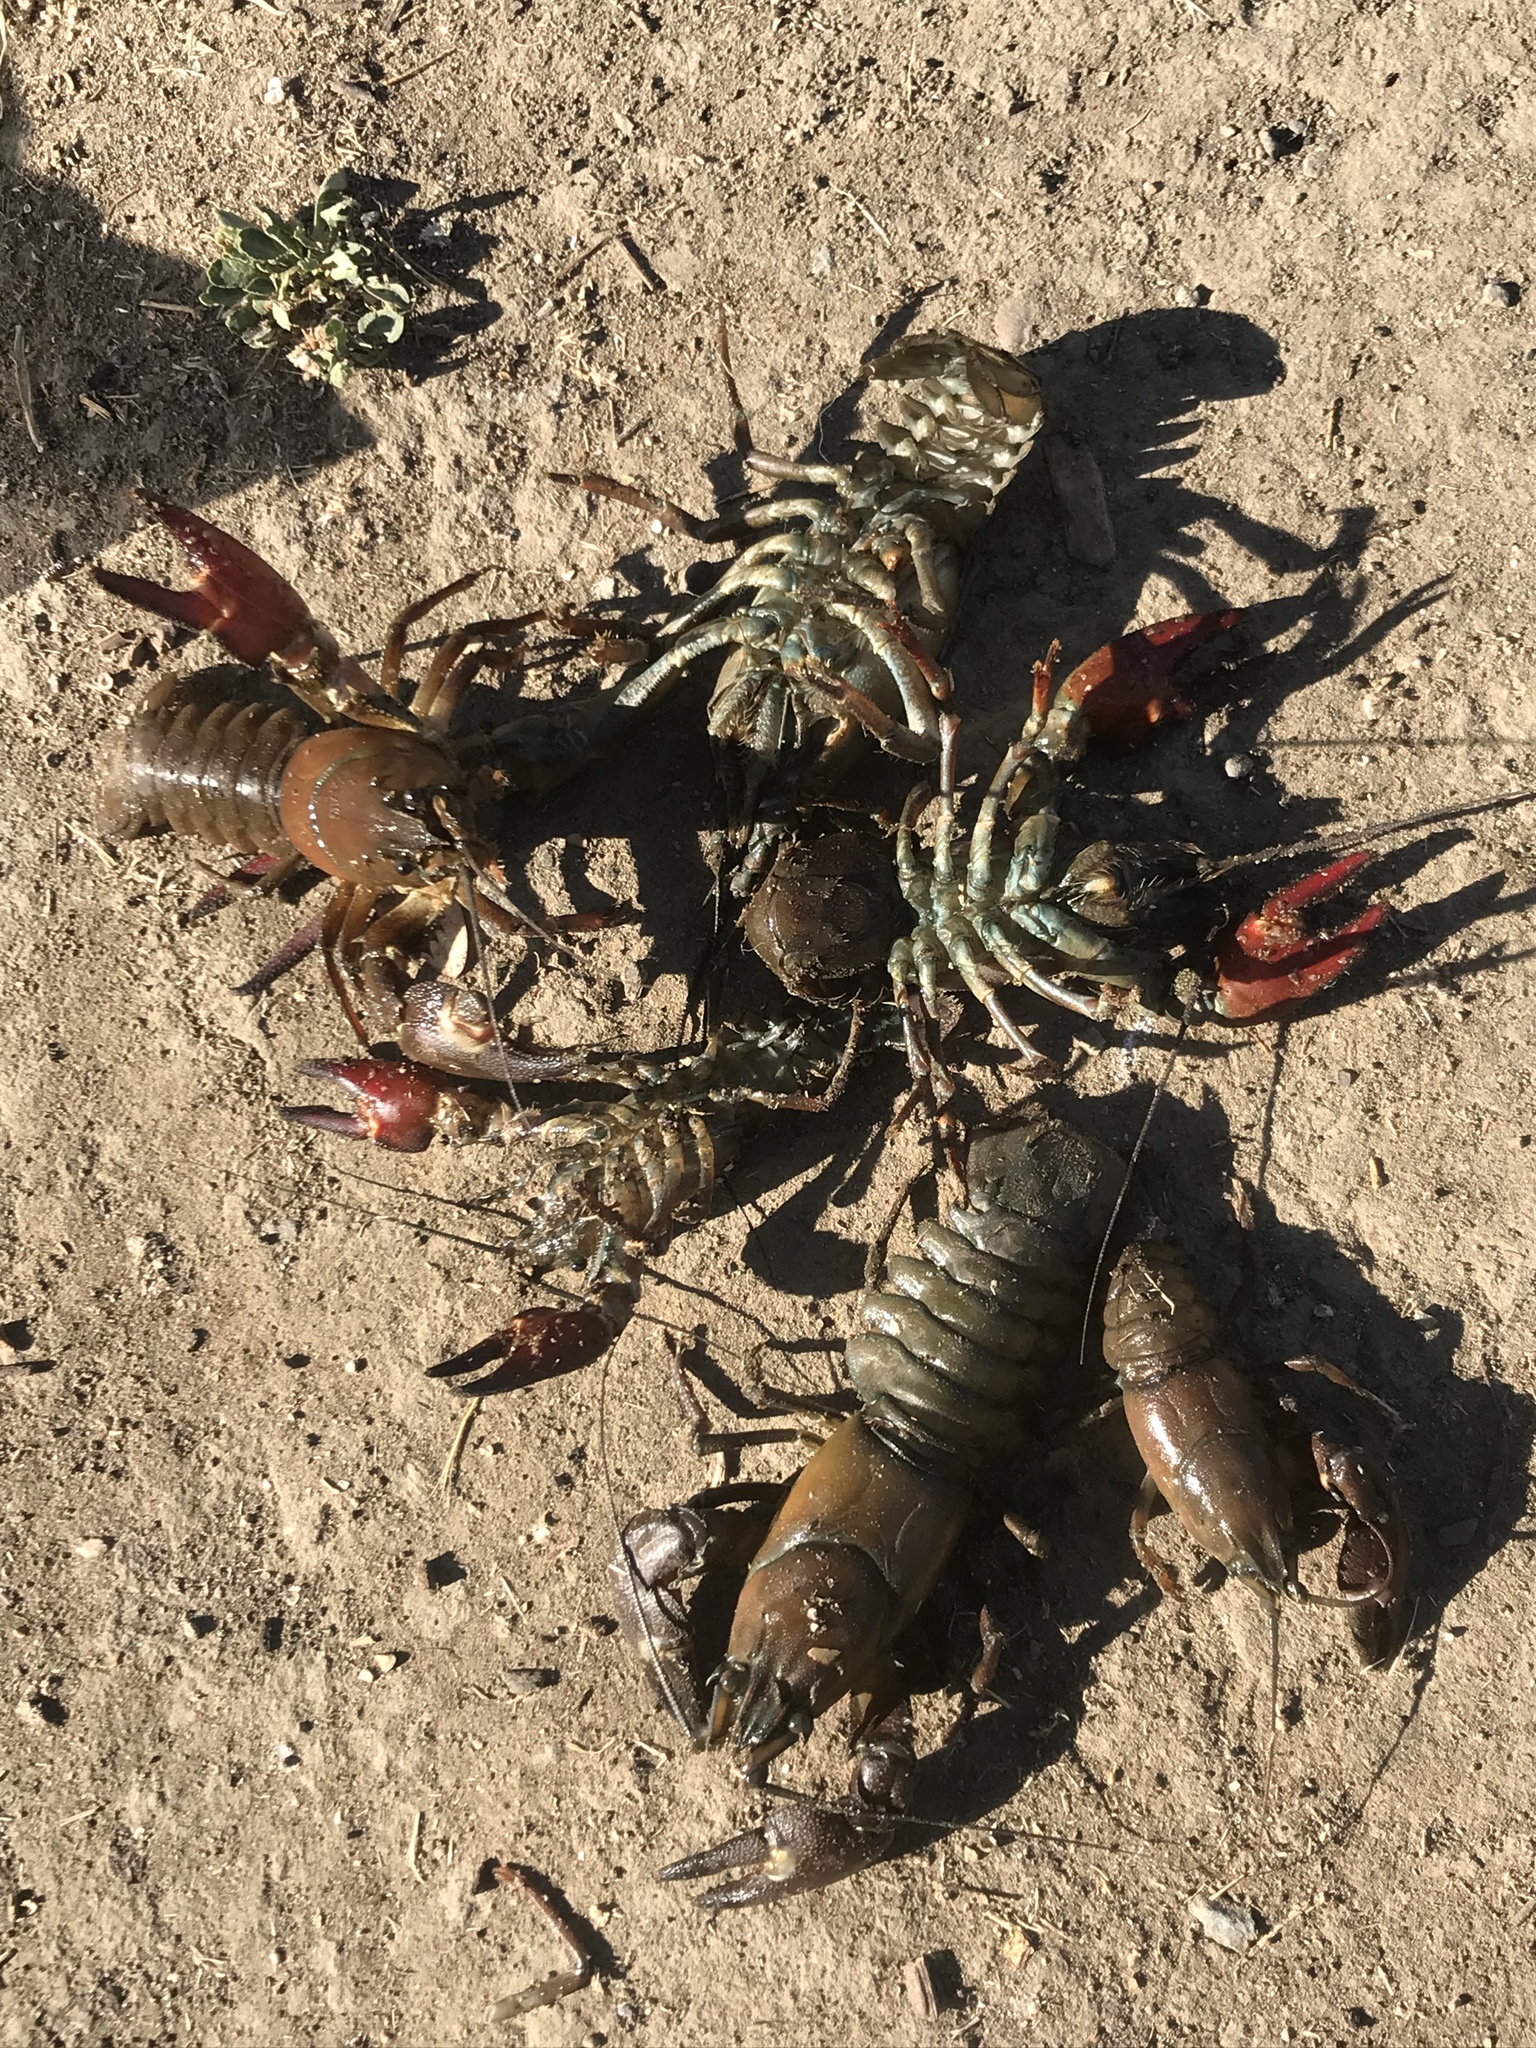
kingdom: Animalia
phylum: Arthropoda
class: Malacostraca
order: Decapoda
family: Astacidae
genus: Pacifastacus
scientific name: Pacifastacus leniusculus
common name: Signal crayfish
